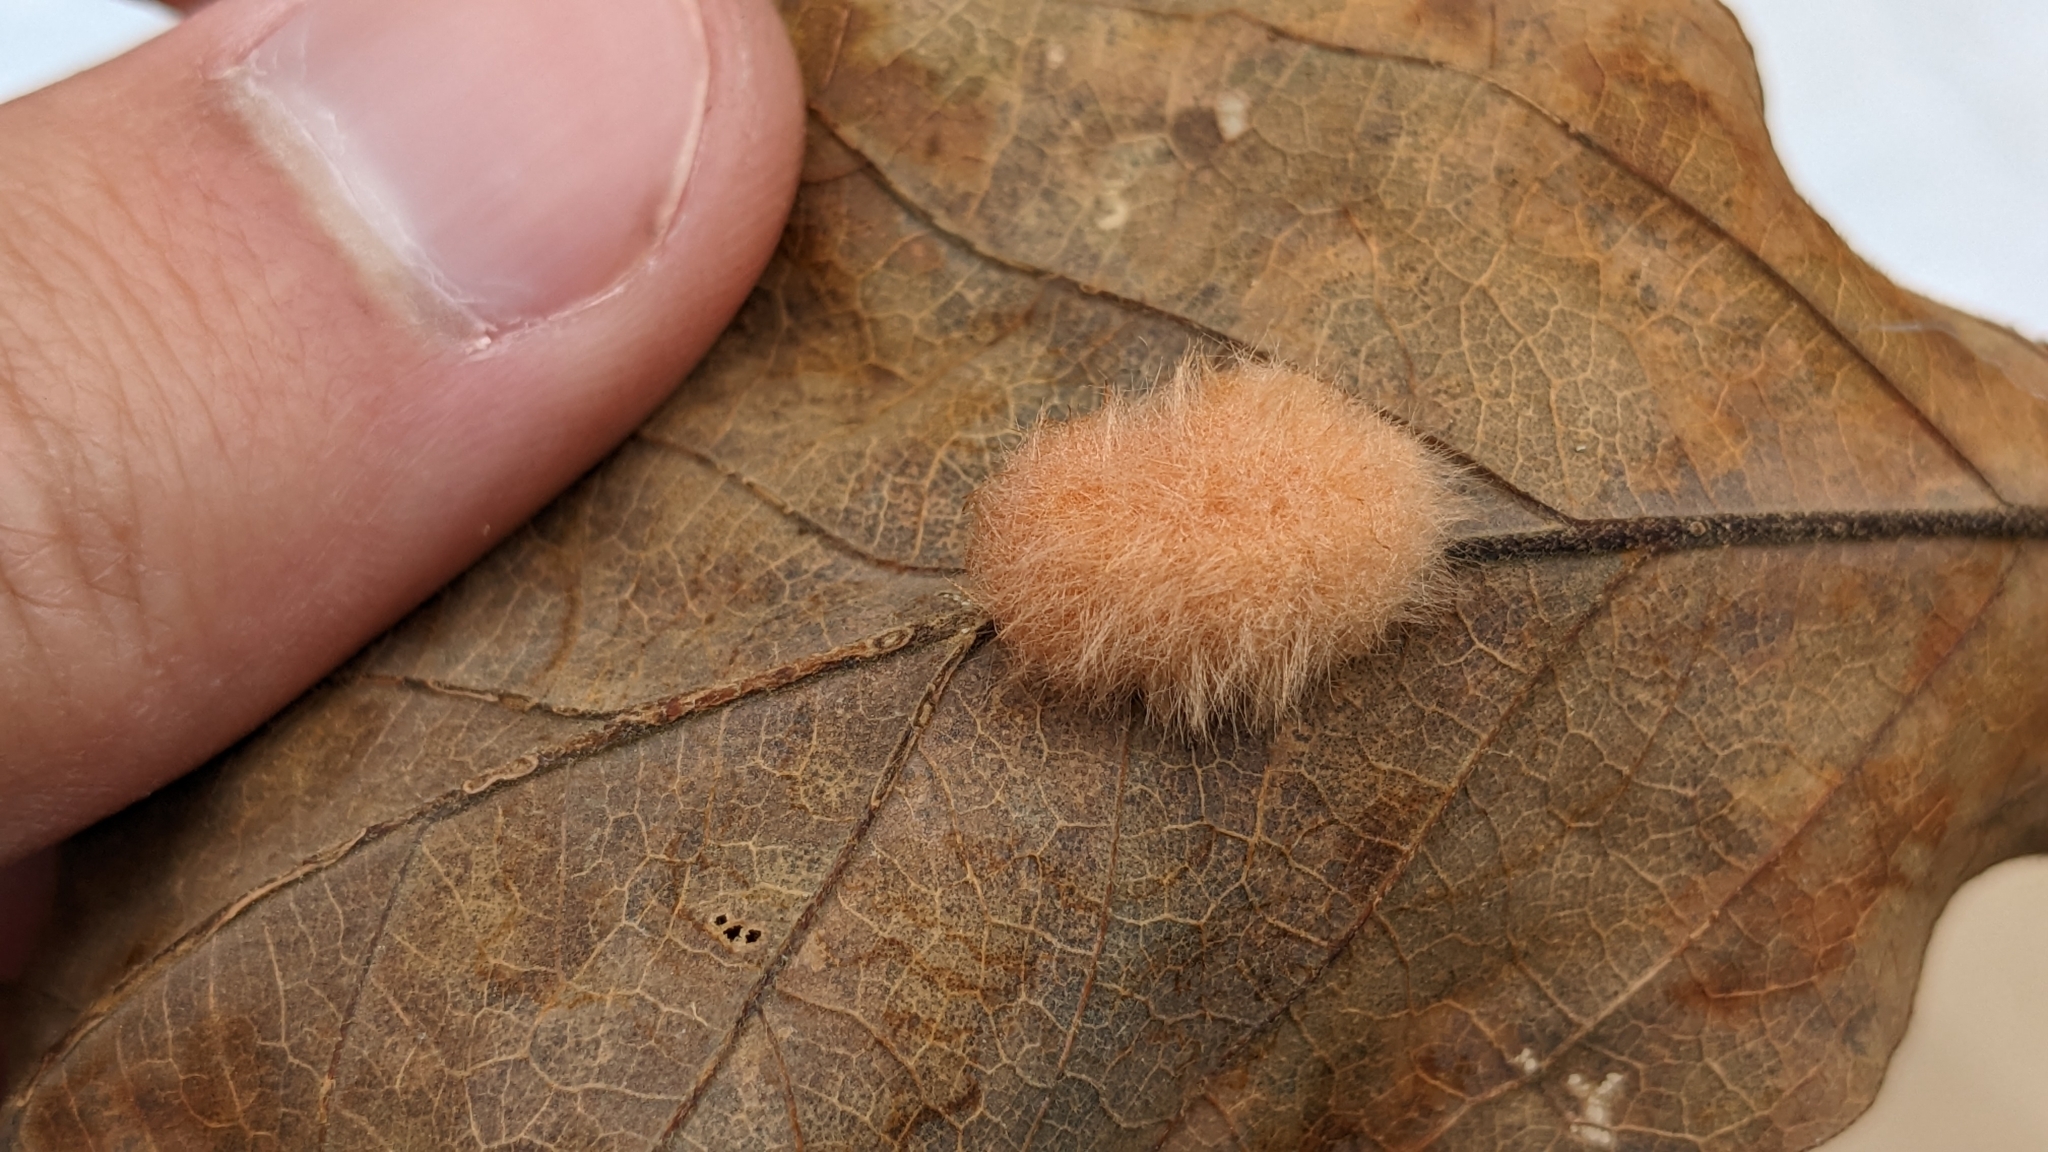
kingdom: Animalia
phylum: Arthropoda
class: Insecta
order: Hymenoptera
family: Cynipidae
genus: Andricus
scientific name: Andricus Druon pattoni
